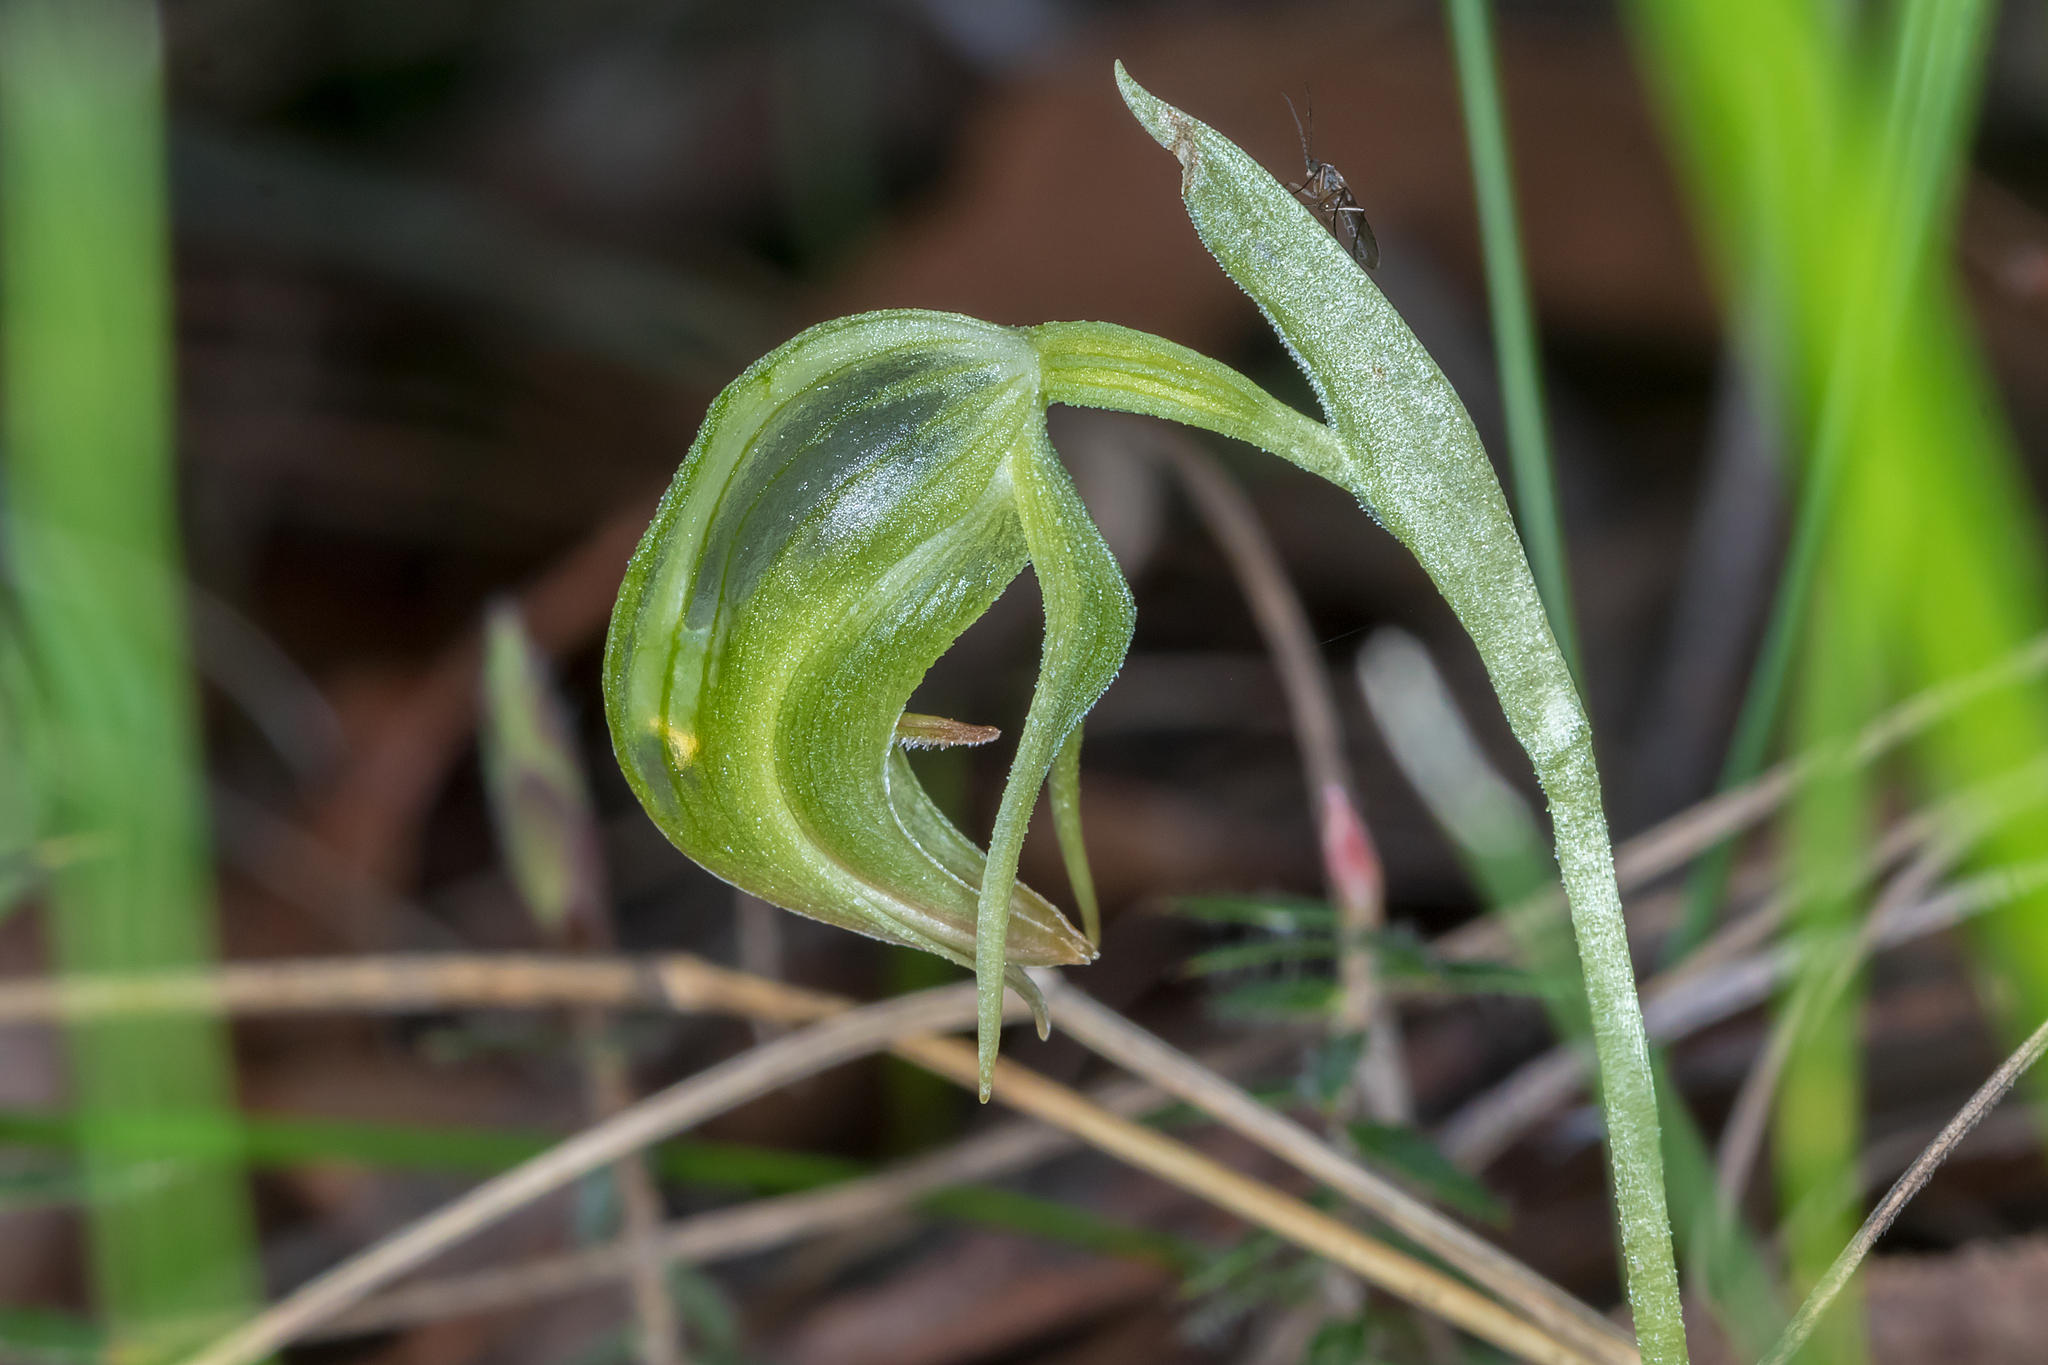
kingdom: Plantae
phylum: Tracheophyta
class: Liliopsida
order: Asparagales
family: Orchidaceae
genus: Pterostylis
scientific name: Pterostylis nutans
